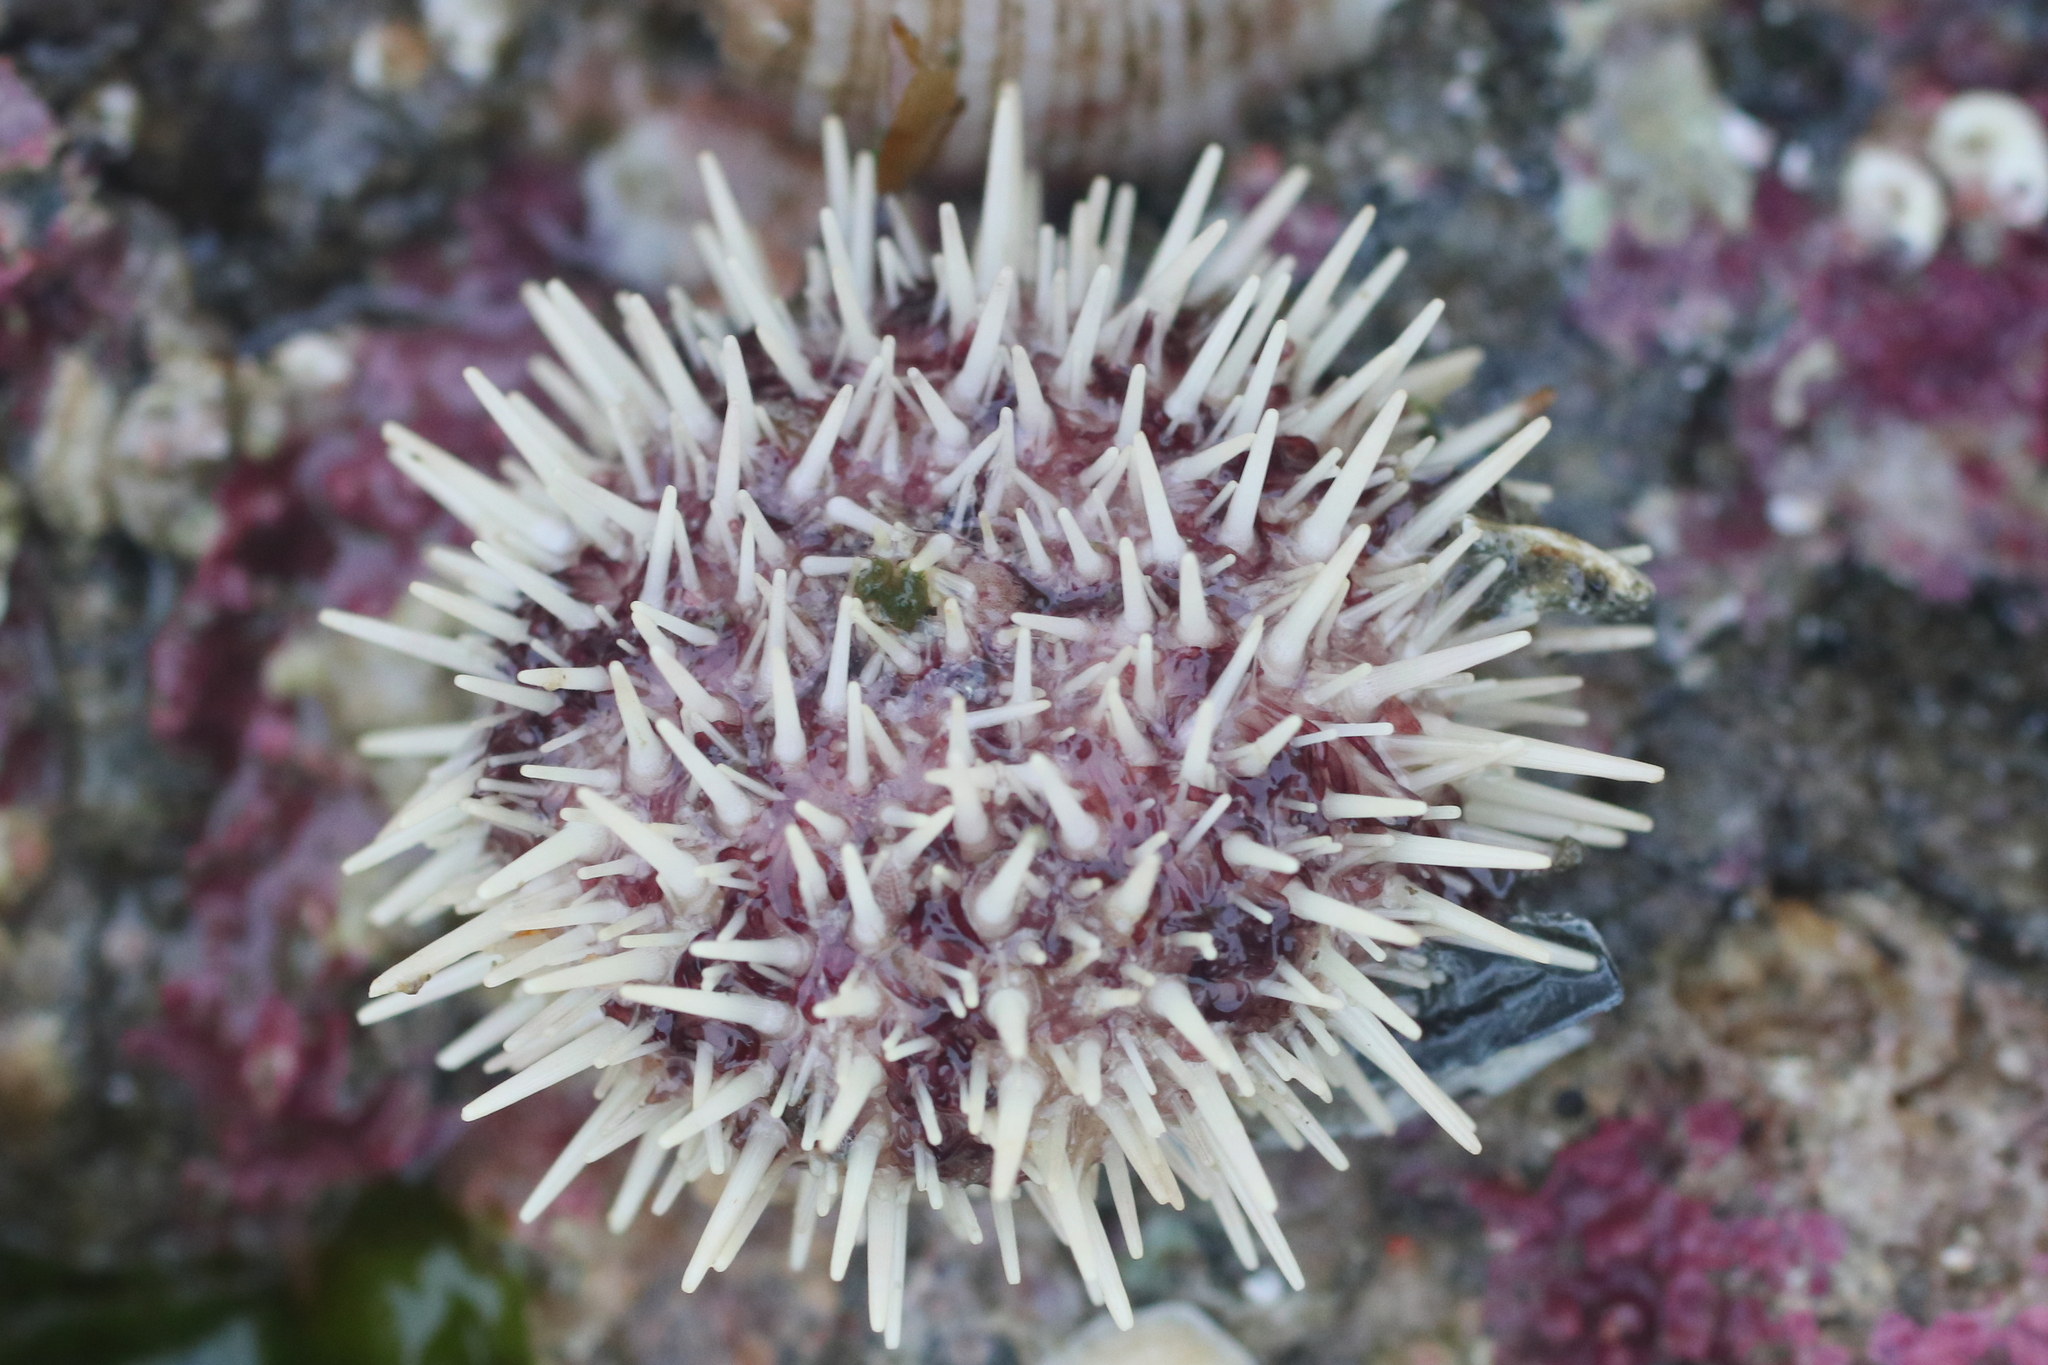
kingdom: Animalia
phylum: Echinodermata
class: Echinoidea
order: Camarodonta
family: Strongylocentrotidae
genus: Strongylocentrotus
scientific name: Strongylocentrotus droebachiensis
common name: Northern sea urchin
